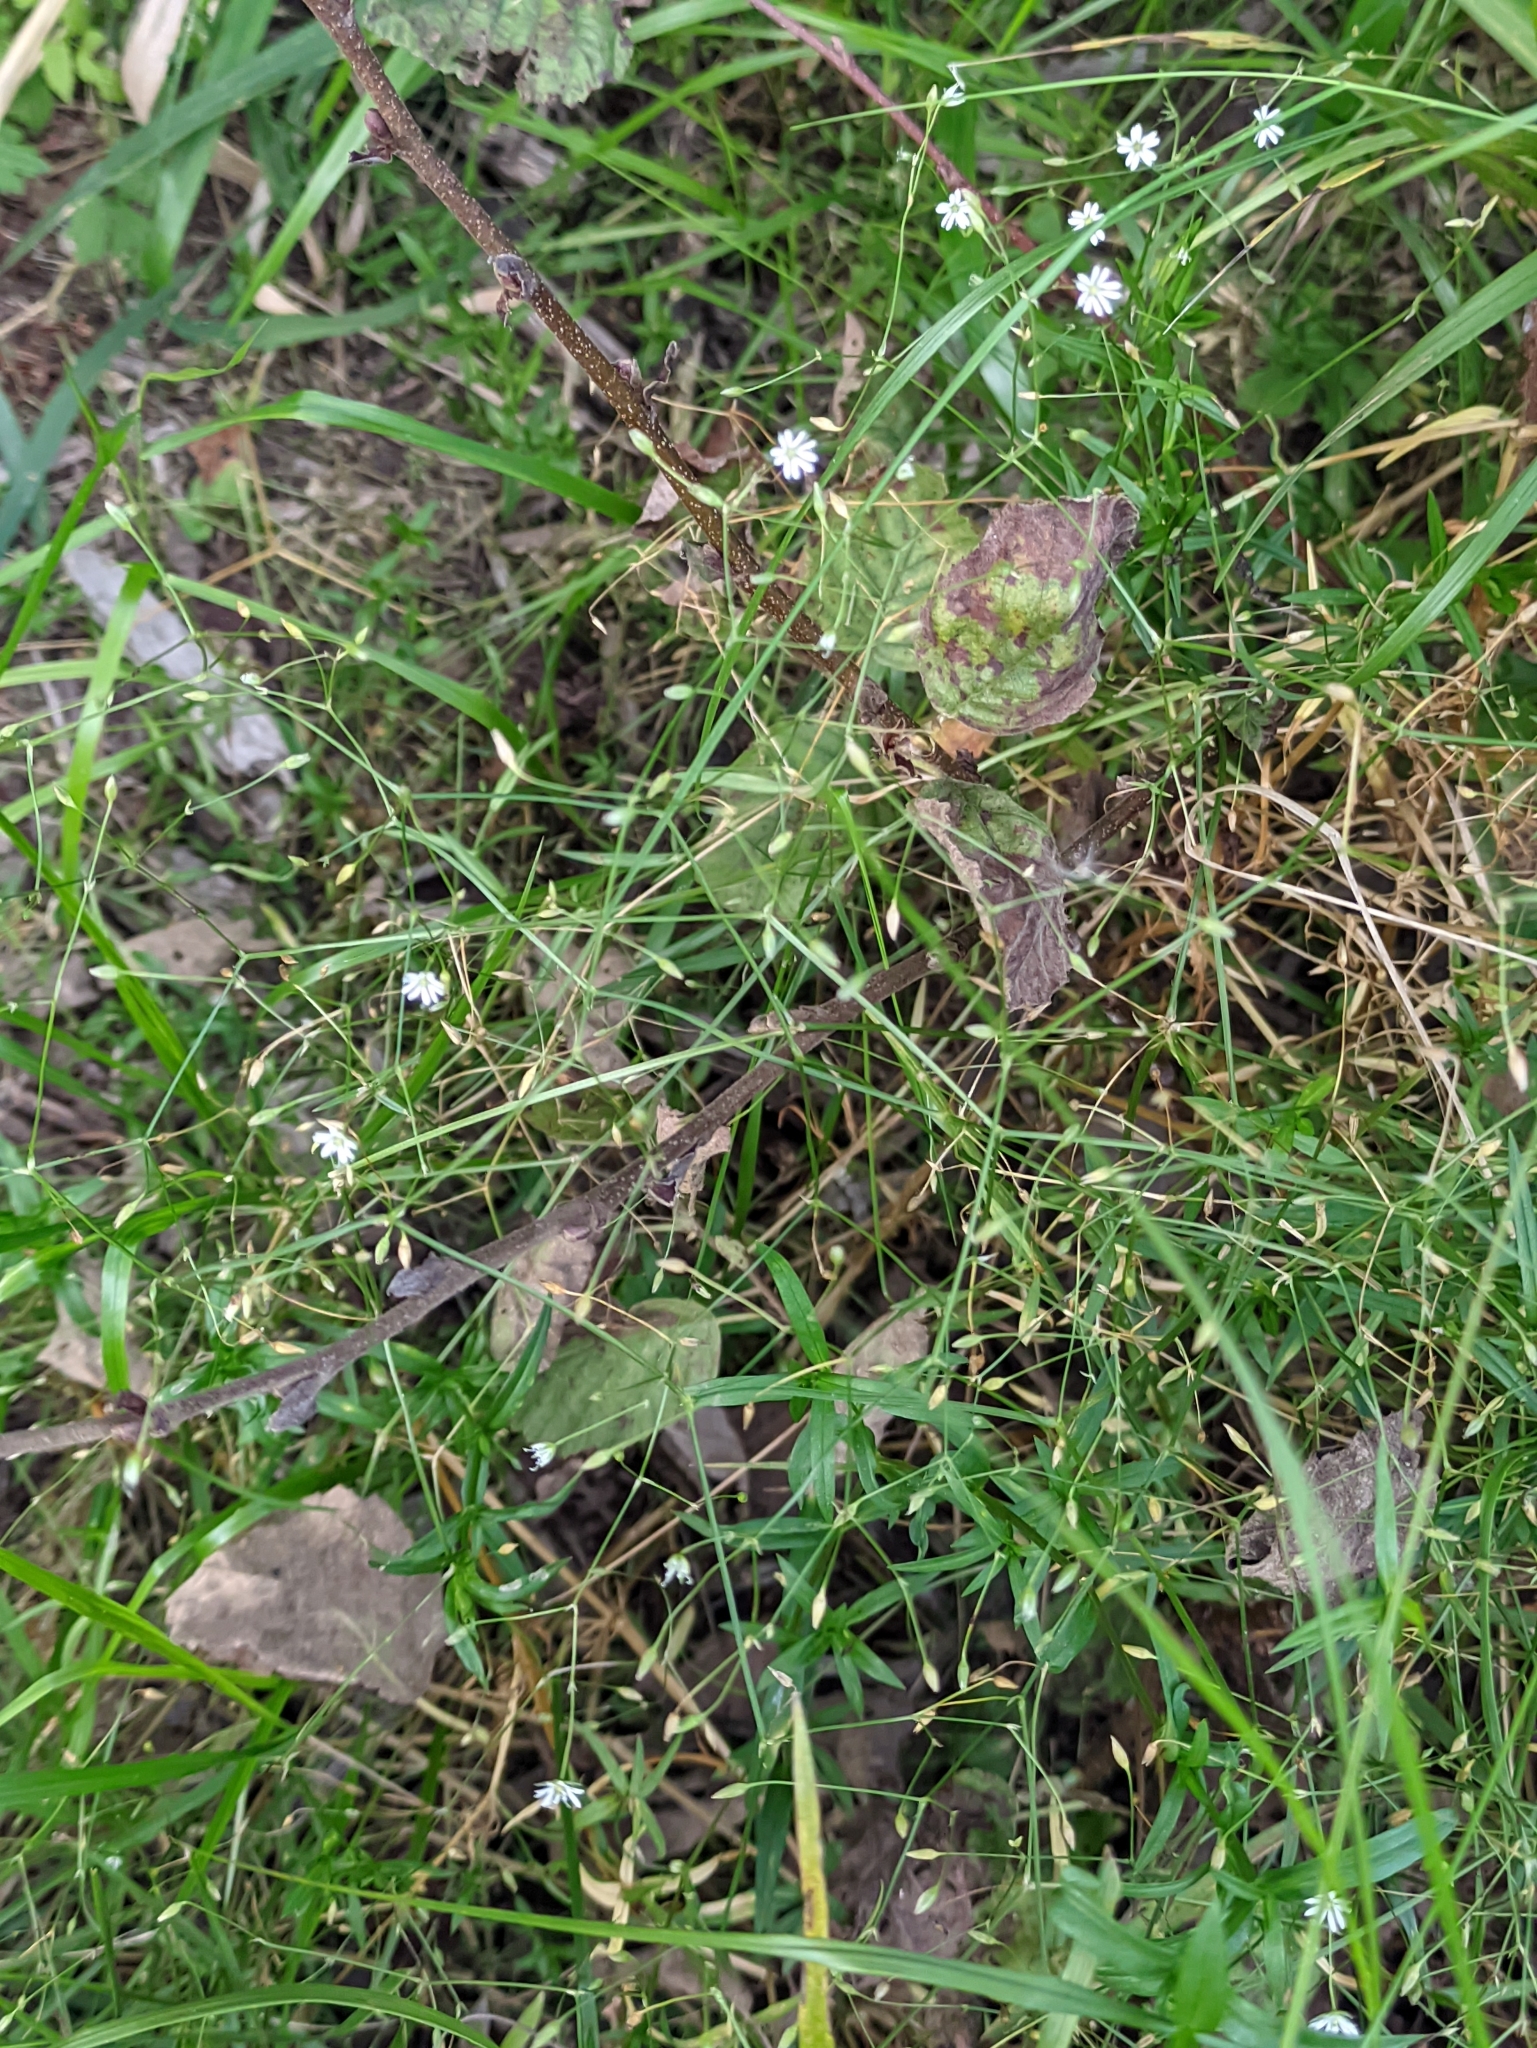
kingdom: Plantae
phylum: Tracheophyta
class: Magnoliopsida
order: Caryophyllales
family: Caryophyllaceae
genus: Stellaria
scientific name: Stellaria graminea
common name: Grass-like starwort
